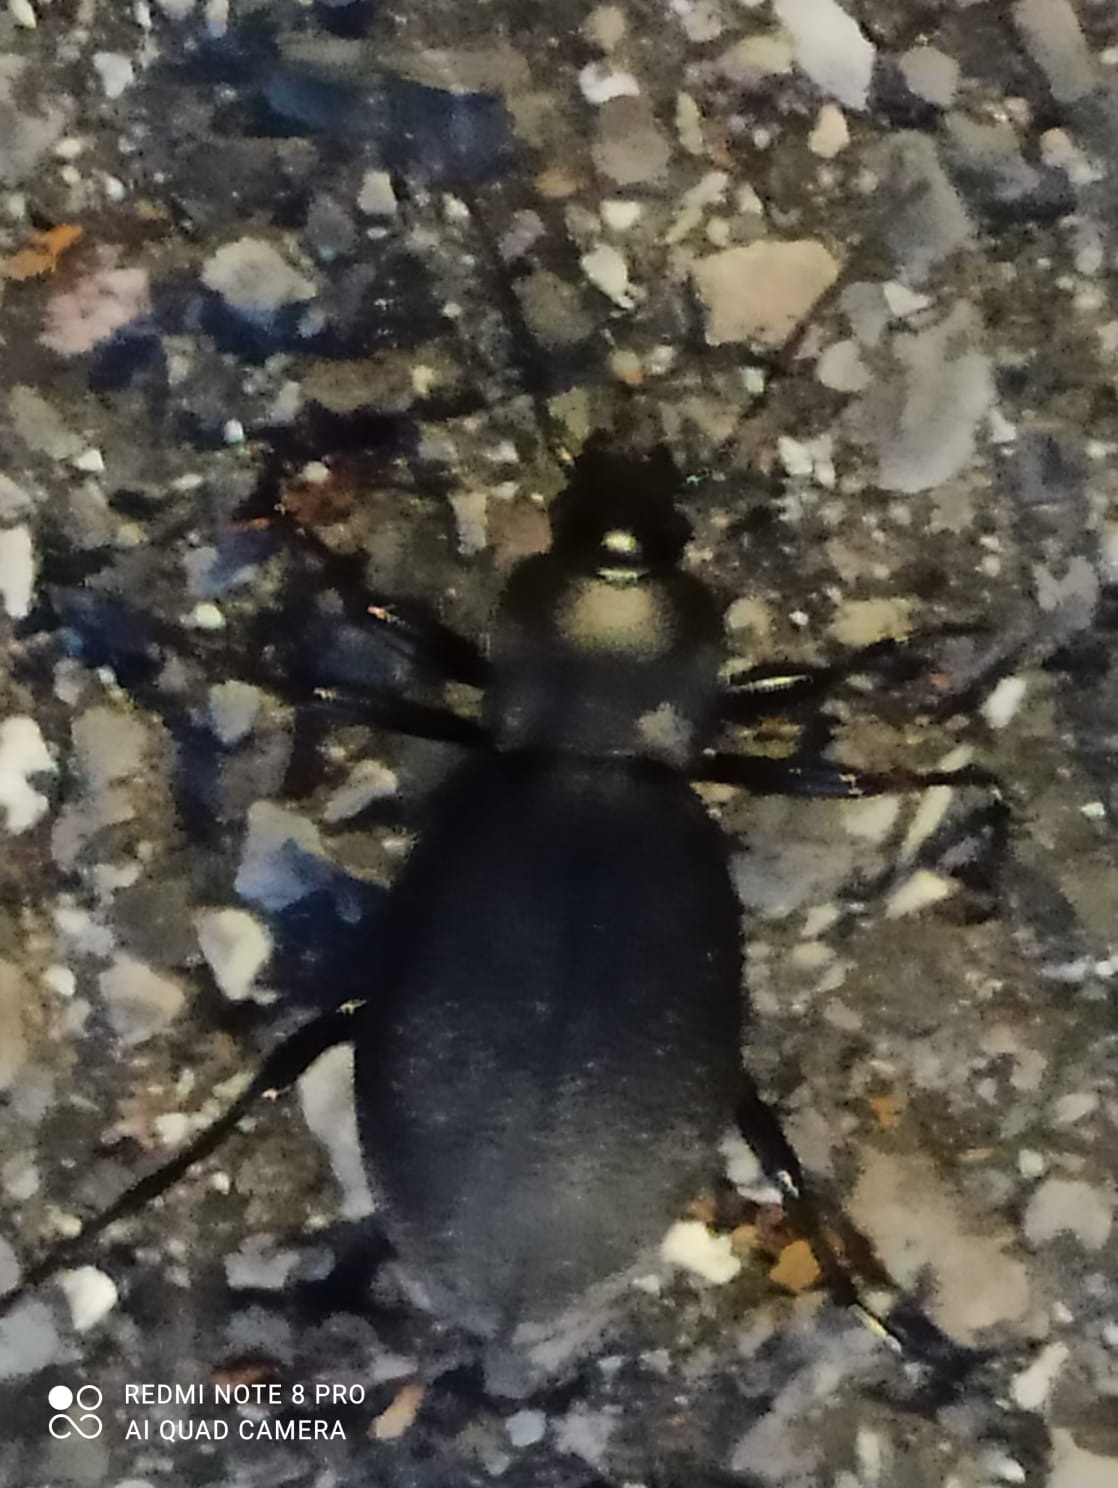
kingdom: Animalia
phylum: Arthropoda
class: Insecta
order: Coleoptera
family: Carabidae
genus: Carabus
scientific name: Carabus coriaceus
